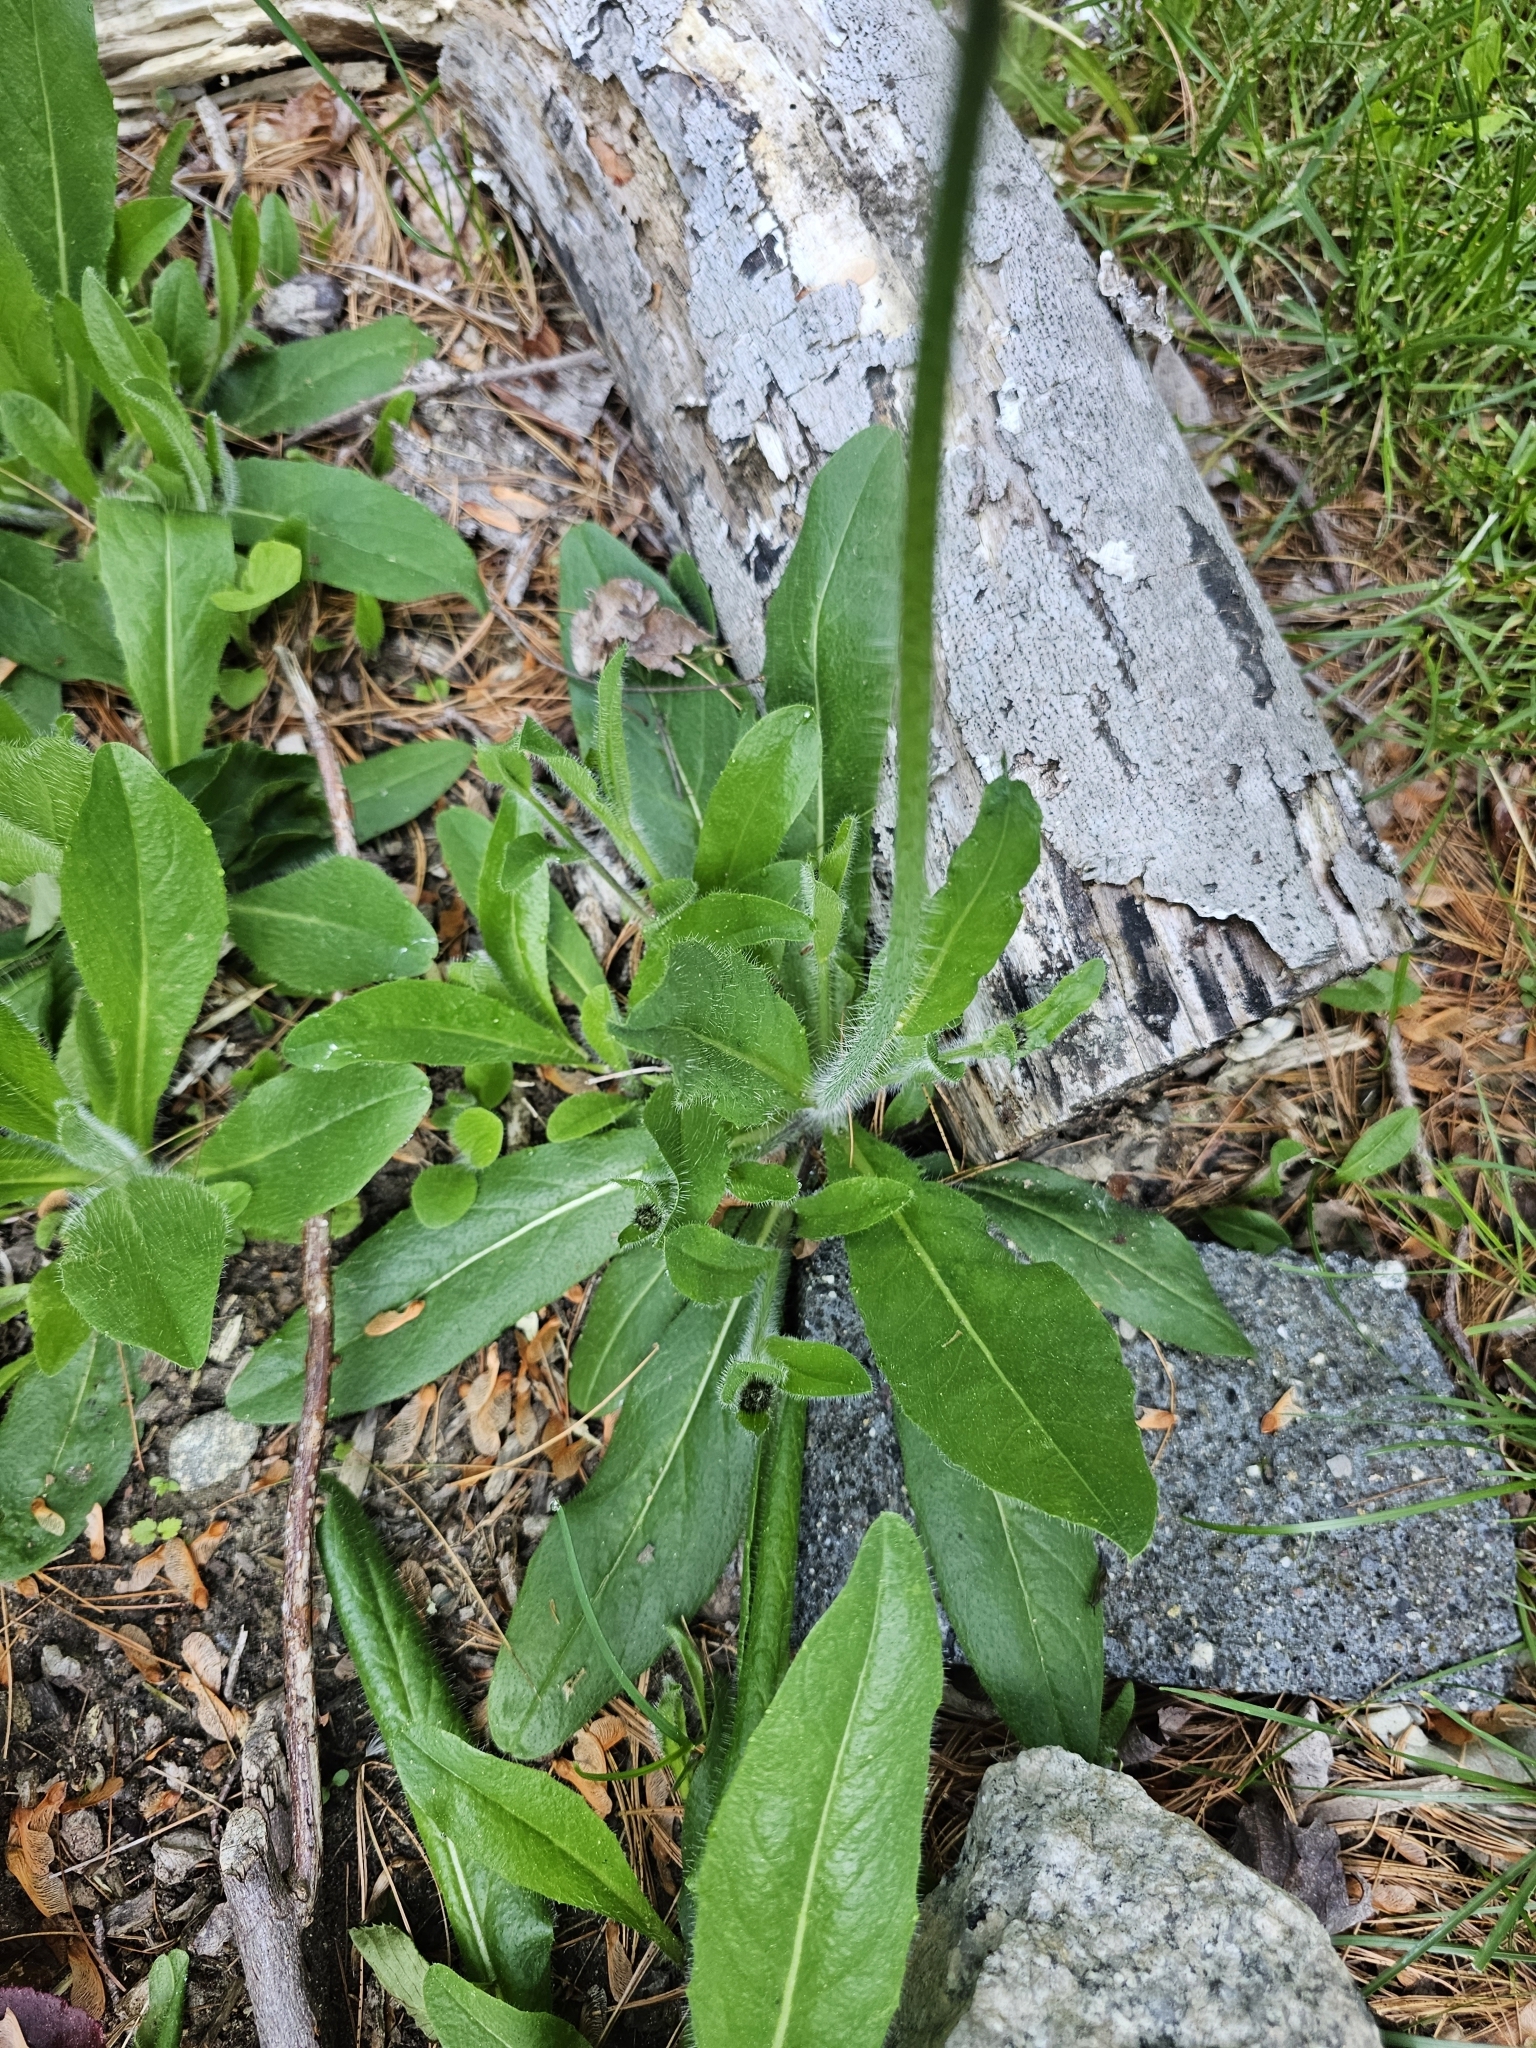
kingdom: Plantae
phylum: Tracheophyta
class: Magnoliopsida
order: Asterales
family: Asteraceae
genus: Pilosella
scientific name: Pilosella aurantiaca
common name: Fox-and-cubs
